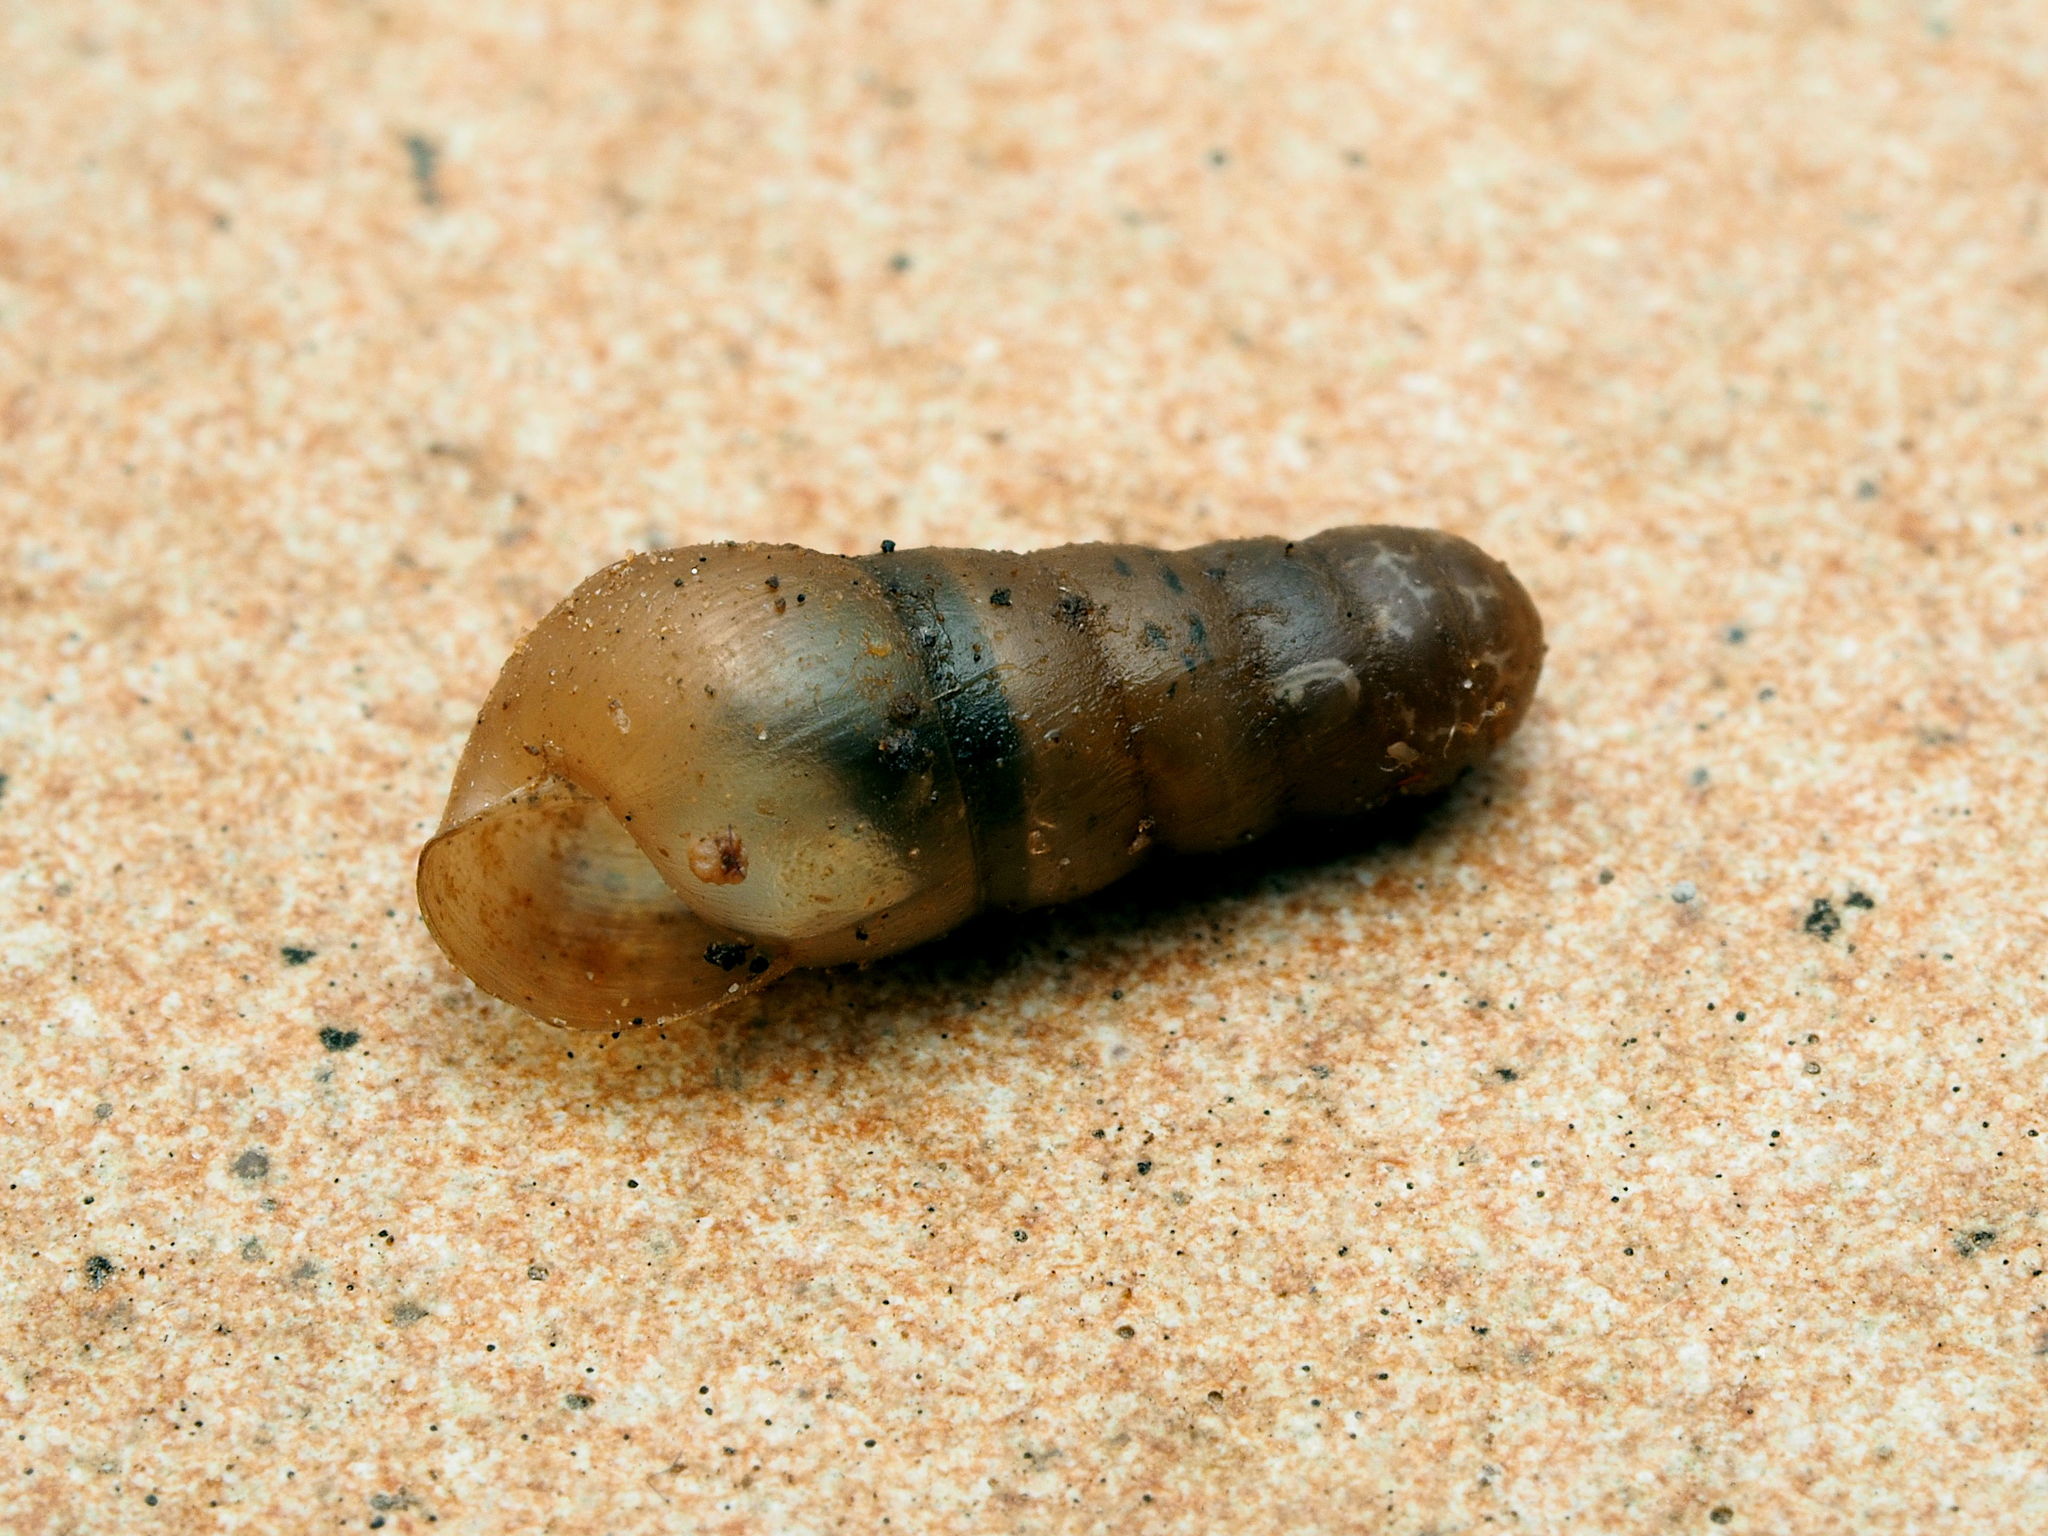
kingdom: Animalia
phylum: Mollusca
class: Gastropoda
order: Stylommatophora
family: Achatinidae
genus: Rumina
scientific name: Rumina decollata
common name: Decollate snail
